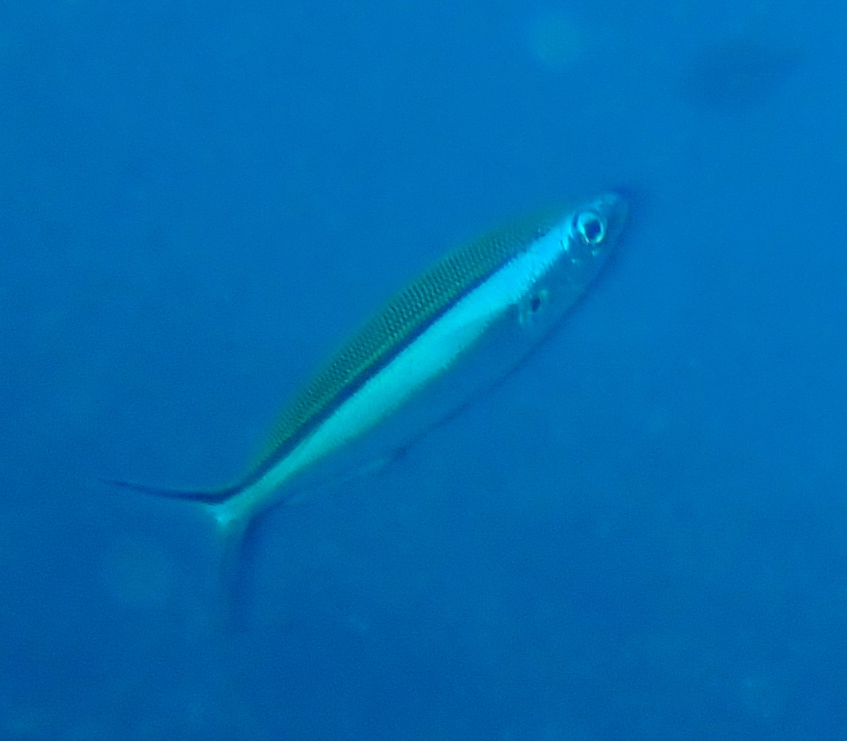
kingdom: Animalia
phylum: Chordata
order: Perciformes
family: Caesionidae
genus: Pterocaesio
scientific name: Pterocaesio tile
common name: Dark-banded fusilier
